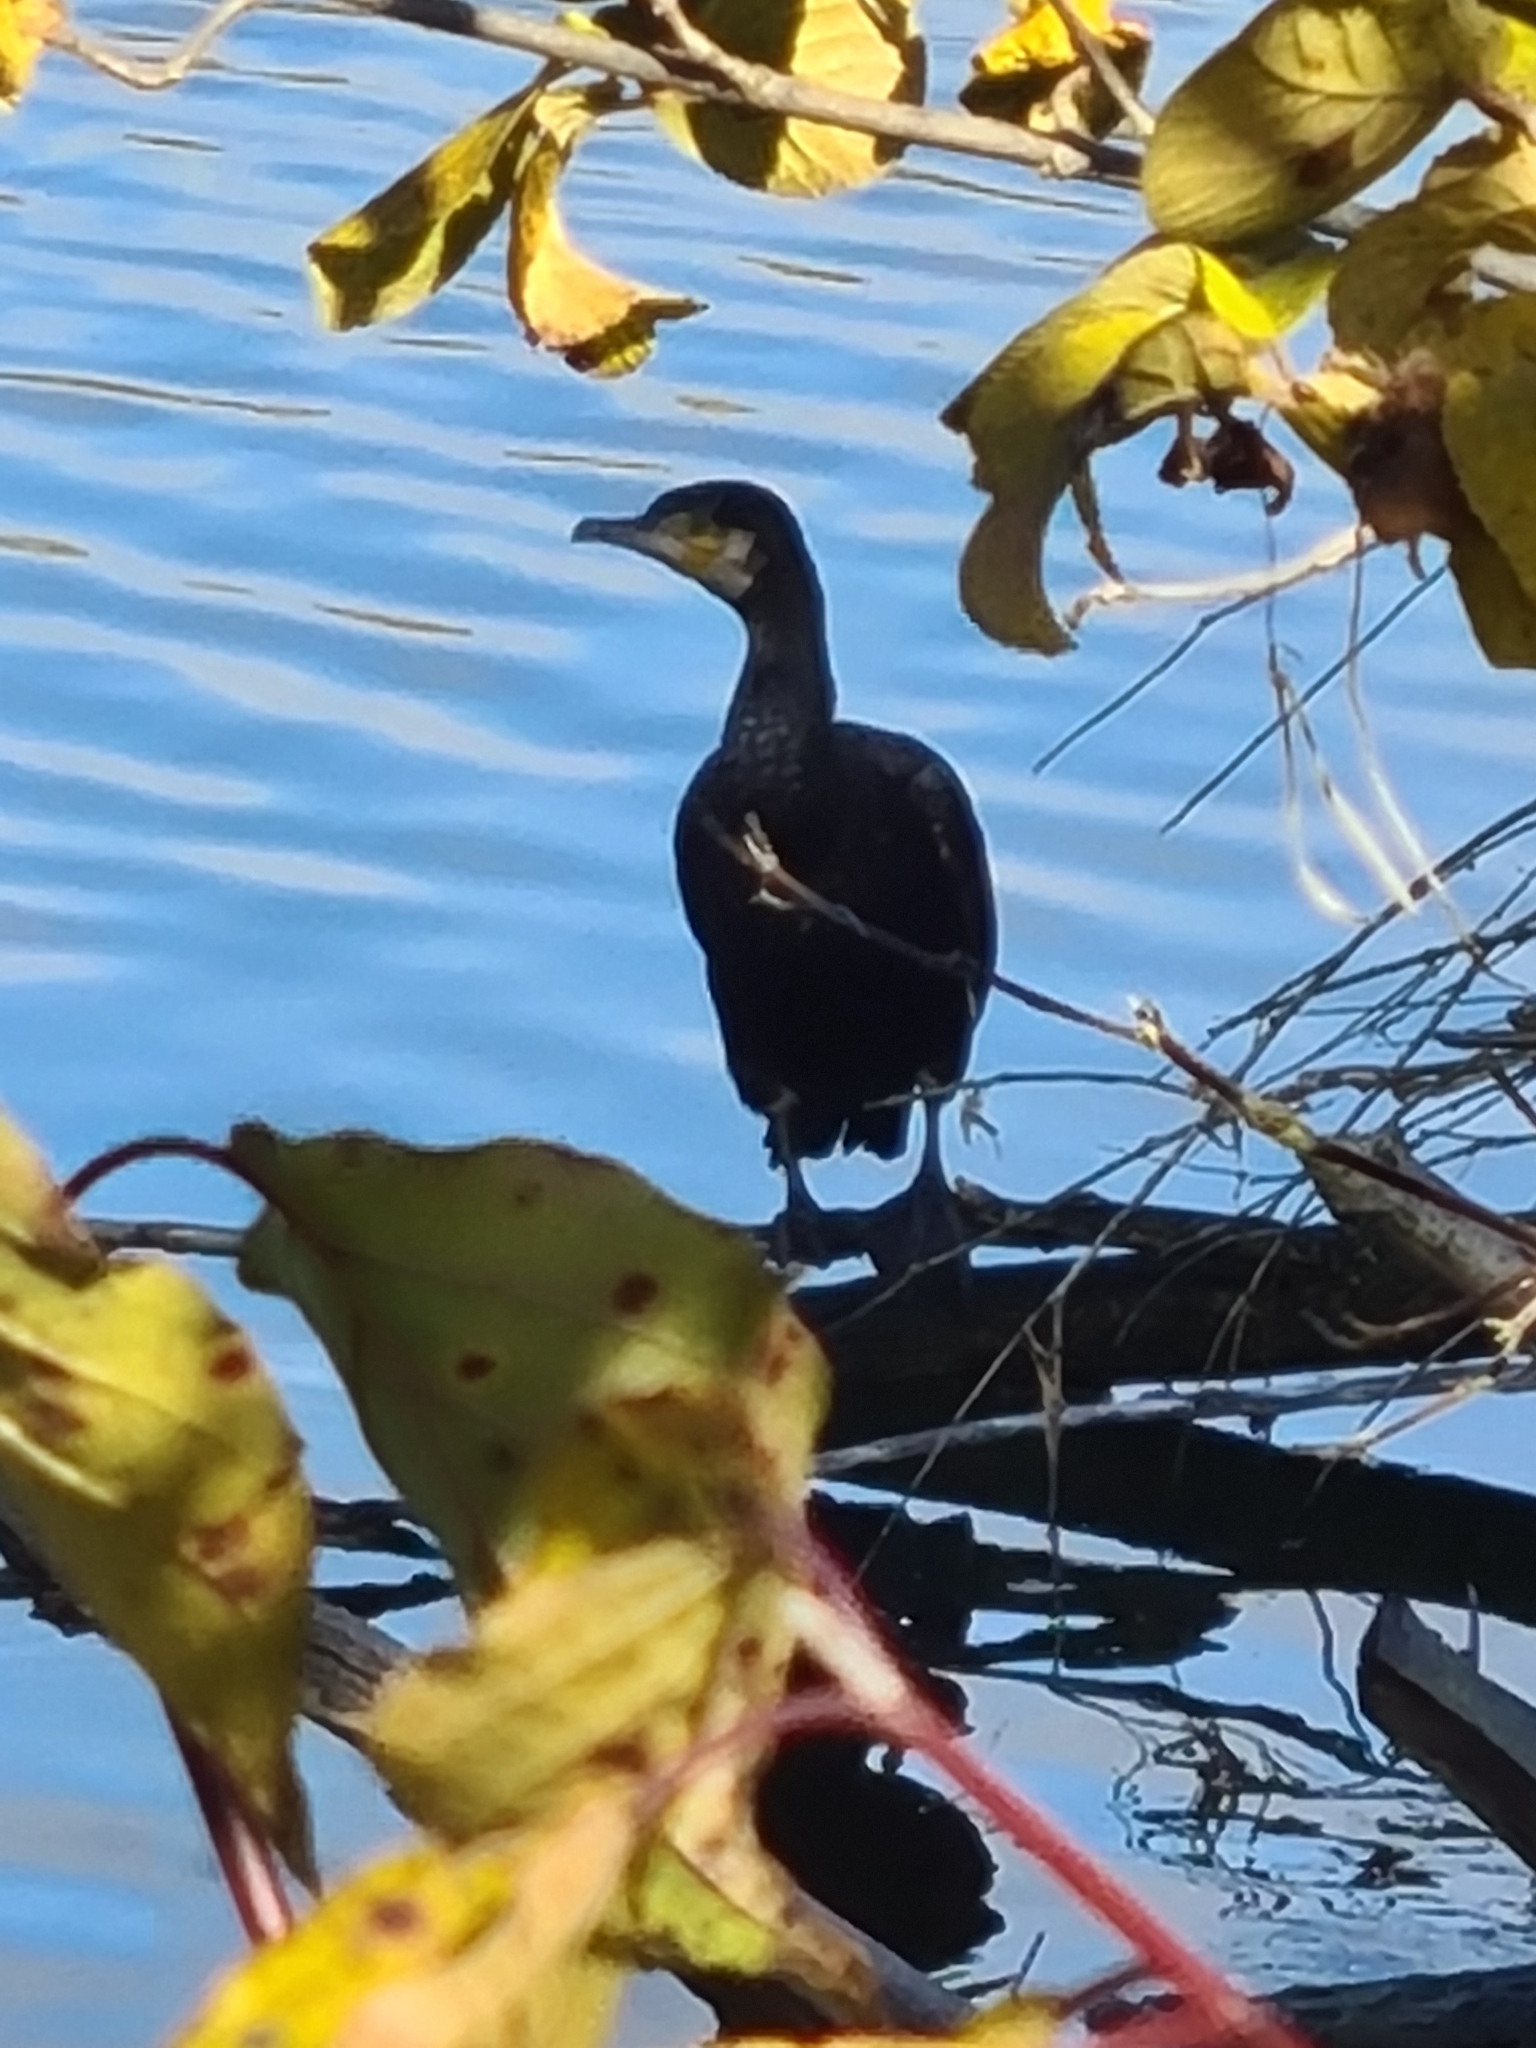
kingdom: Animalia
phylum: Chordata
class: Aves
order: Suliformes
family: Phalacrocoracidae
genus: Phalacrocorax
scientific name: Phalacrocorax carbo
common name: Great cormorant
